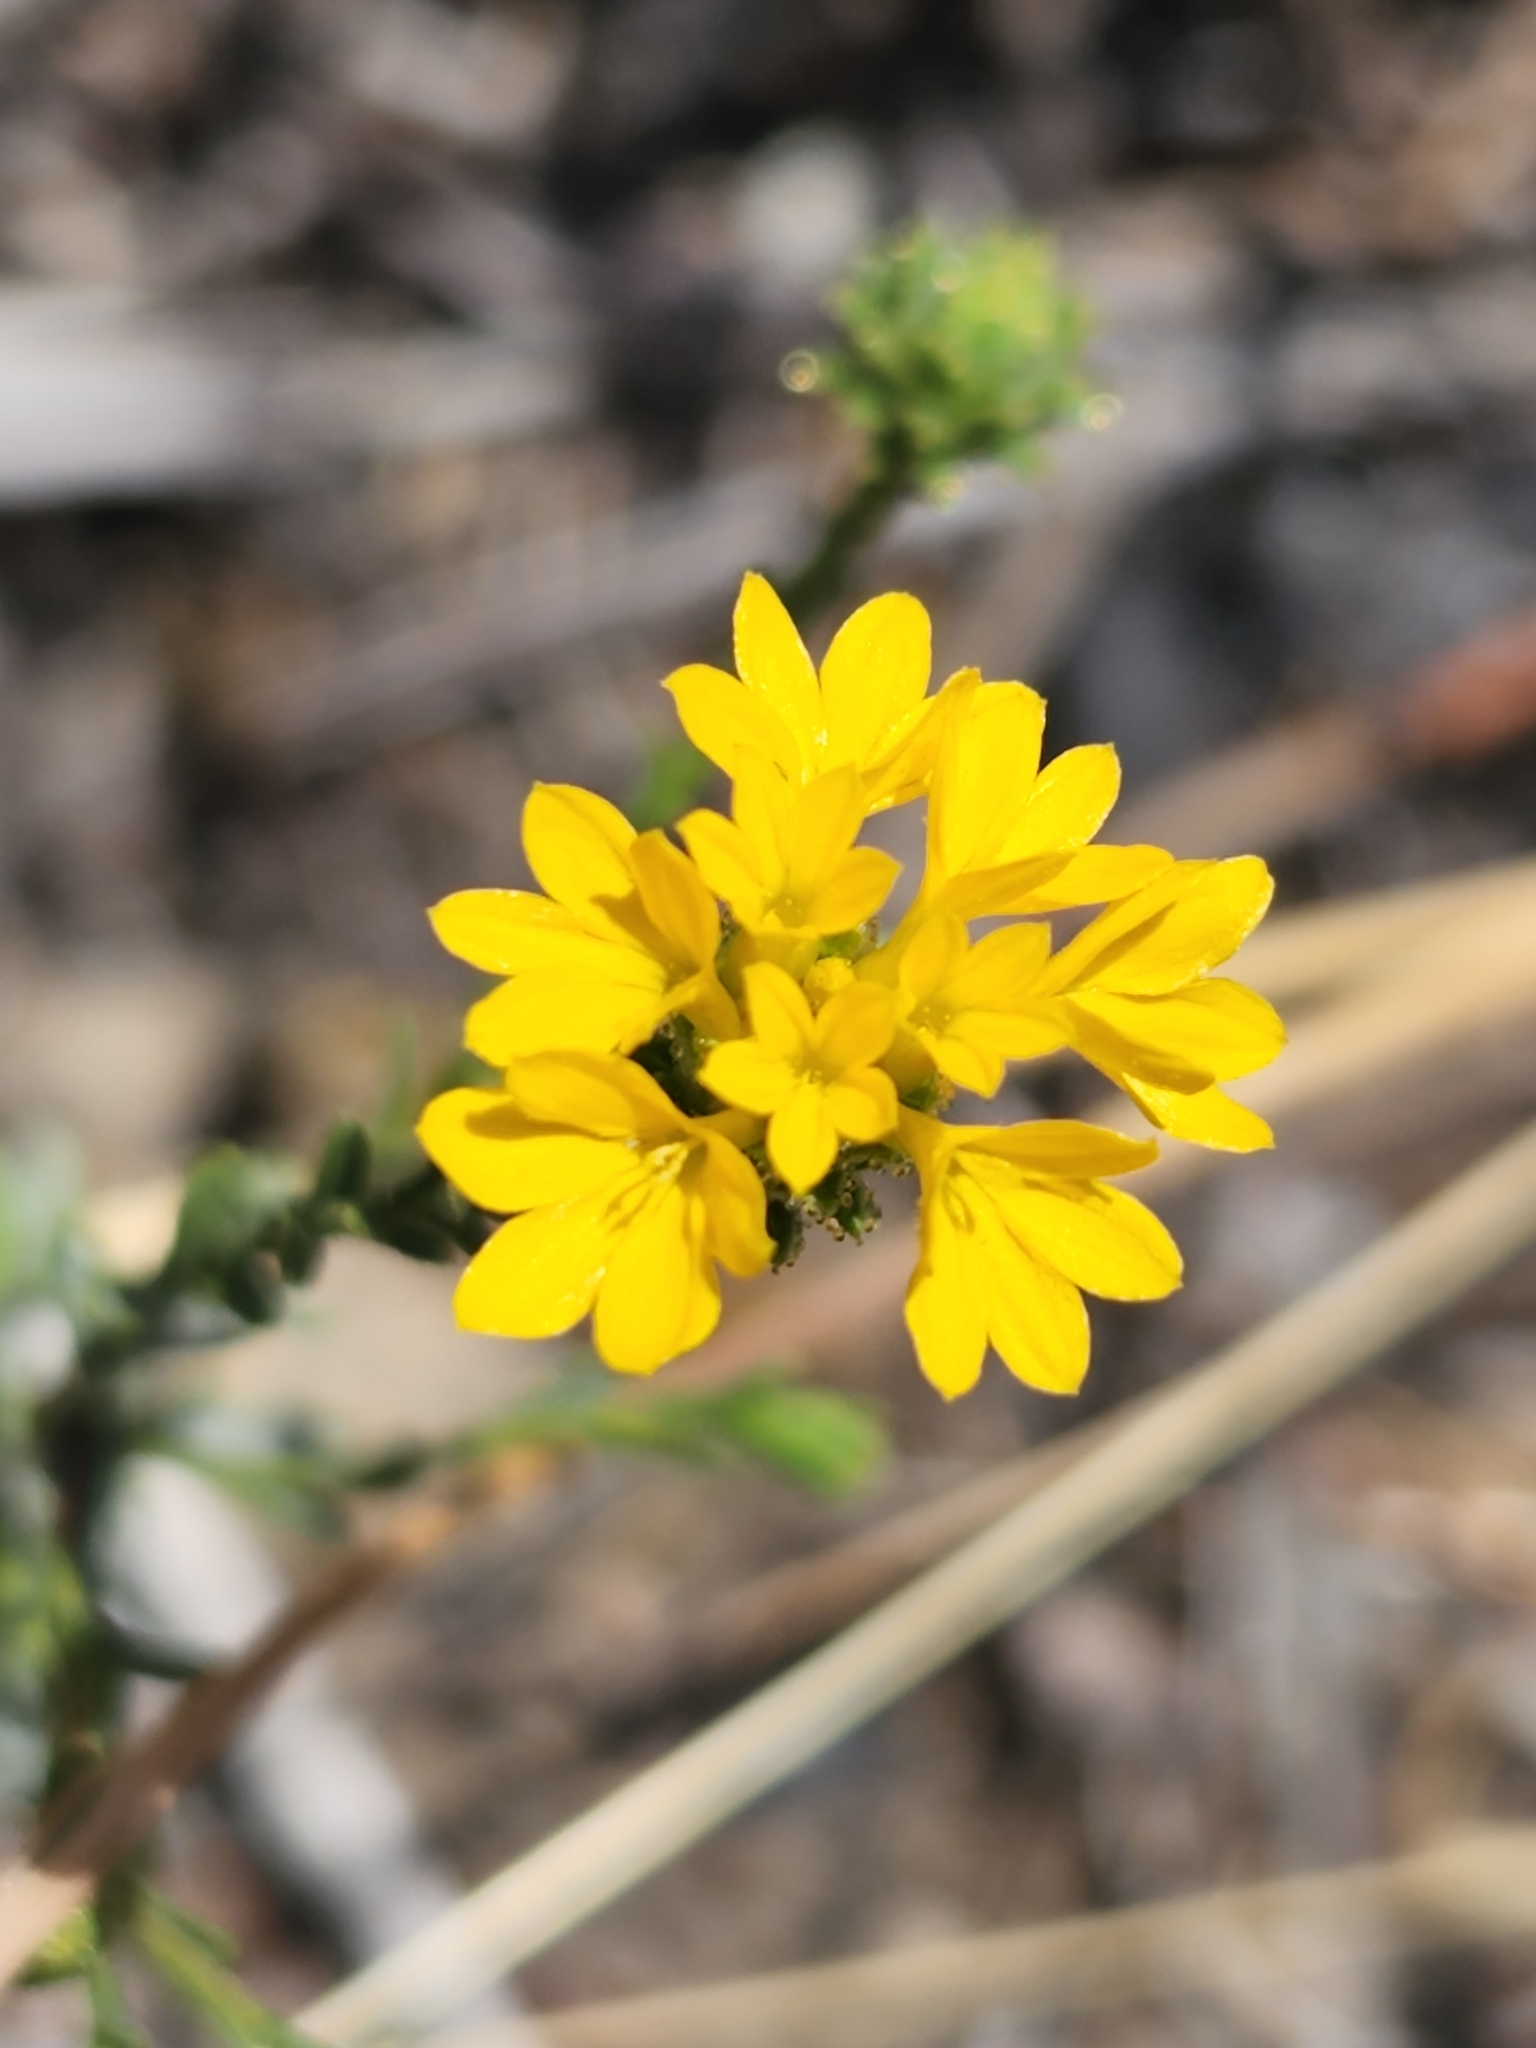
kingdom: Plantae
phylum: Tracheophyta
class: Magnoliopsida
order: Asterales
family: Asteraceae
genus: Lessingia
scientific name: Lessingia glandulifera
